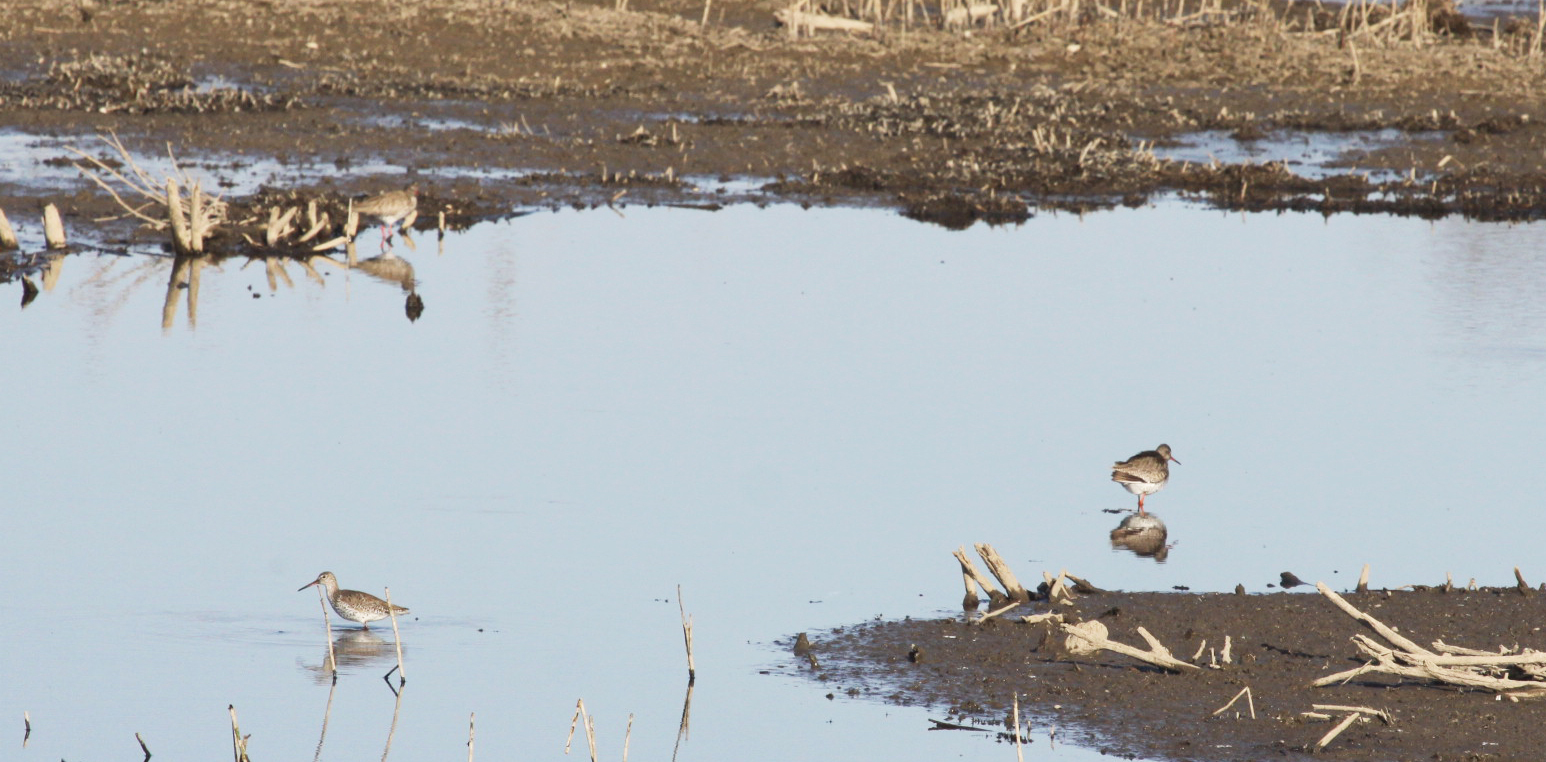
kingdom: Animalia
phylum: Chordata
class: Aves
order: Charadriiformes
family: Scolopacidae
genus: Tringa
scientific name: Tringa totanus
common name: Common redshank
